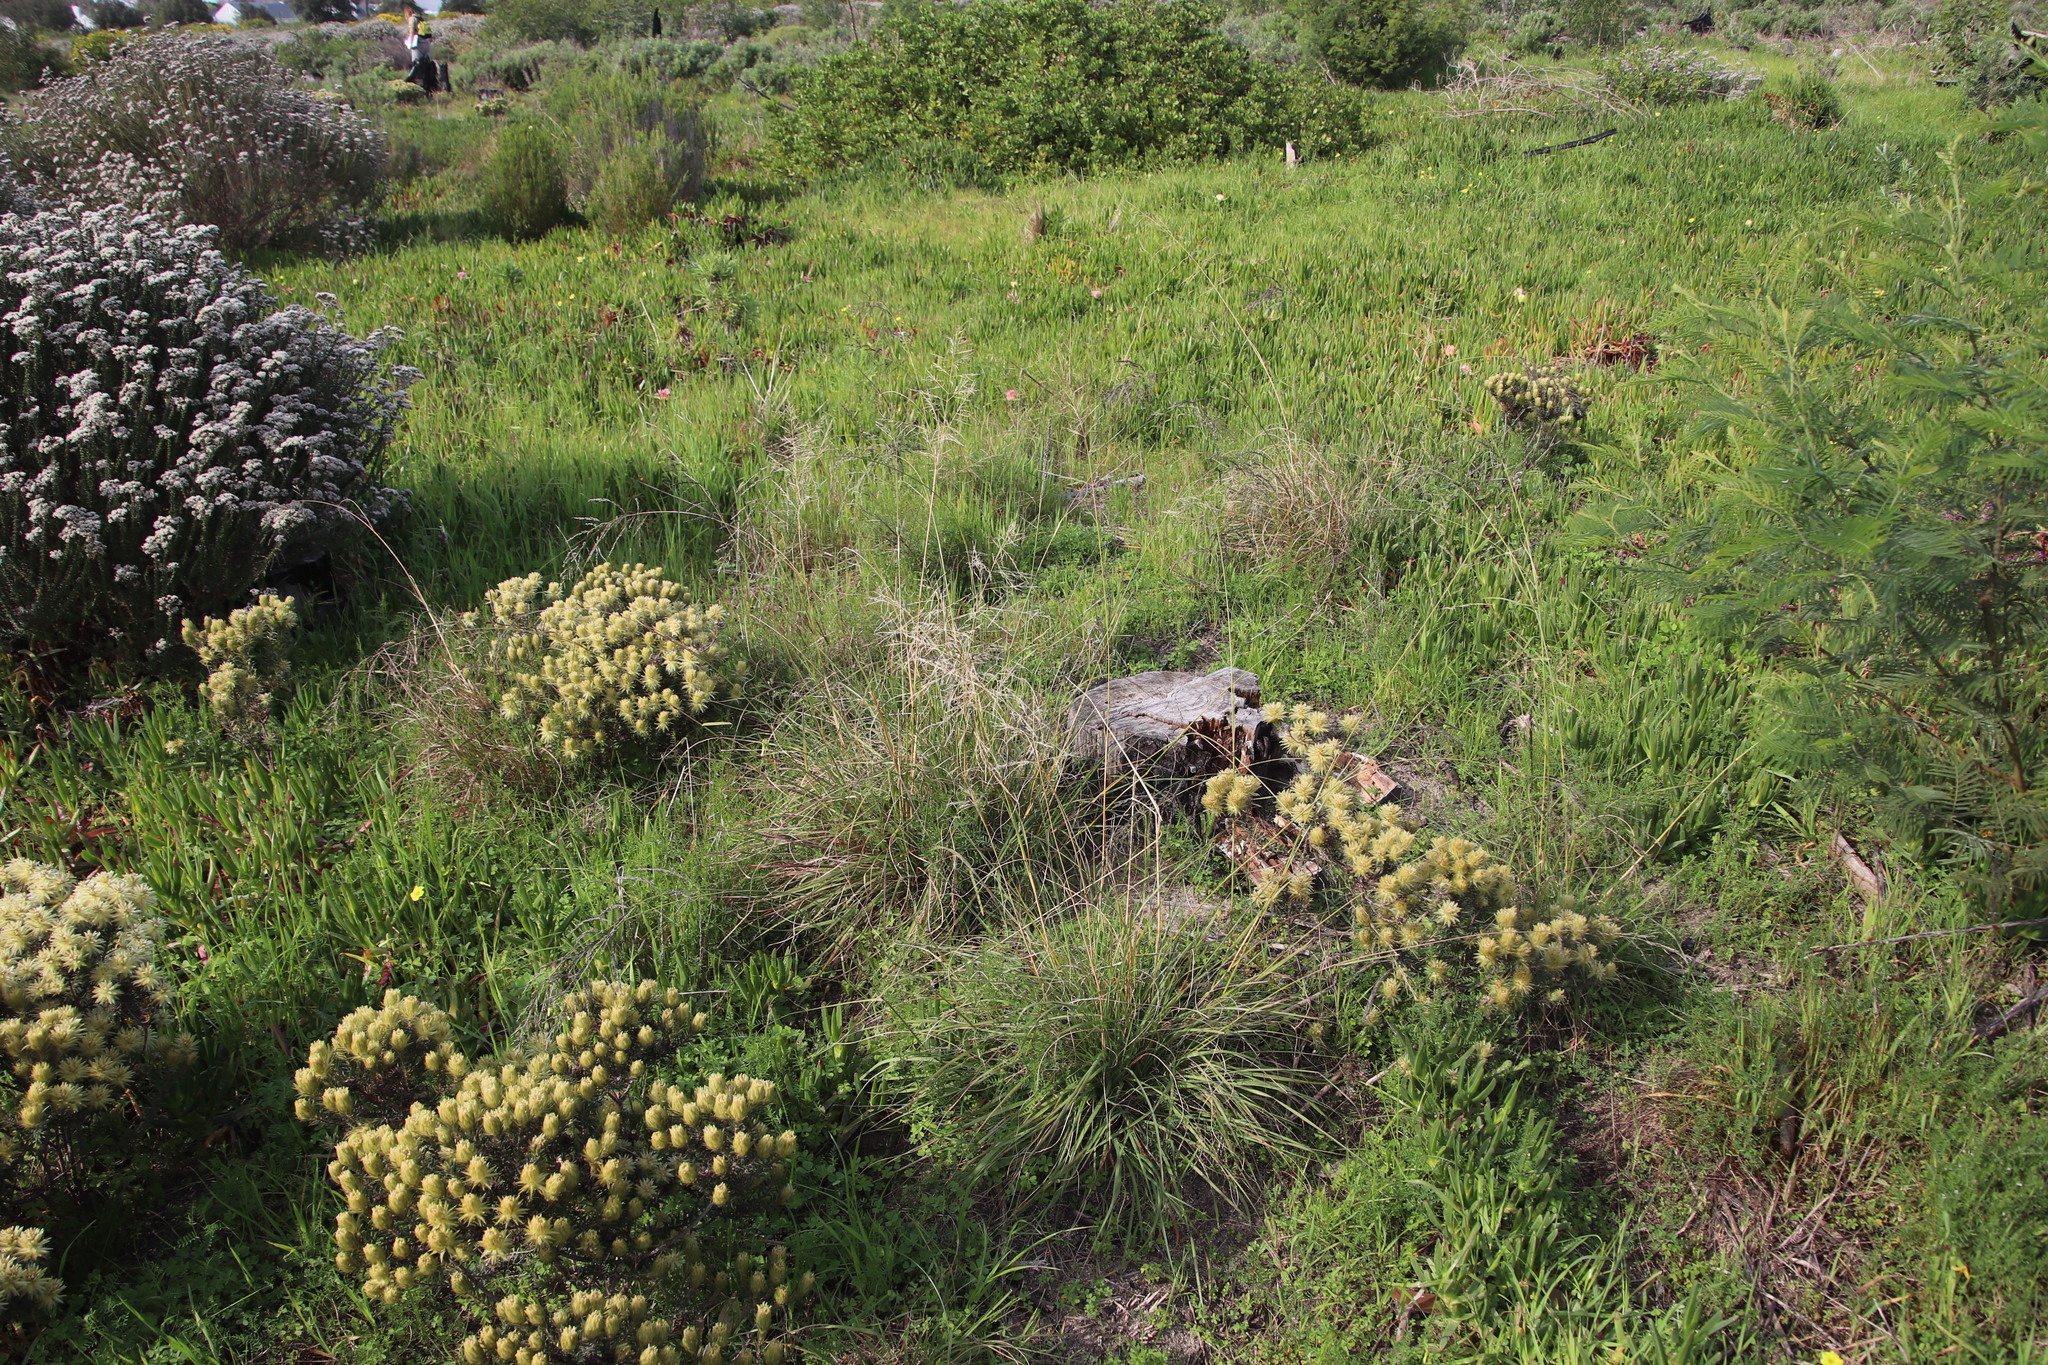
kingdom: Plantae
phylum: Tracheophyta
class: Liliopsida
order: Poales
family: Poaceae
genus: Eragrostis
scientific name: Eragrostis curvula
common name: African love-grass
